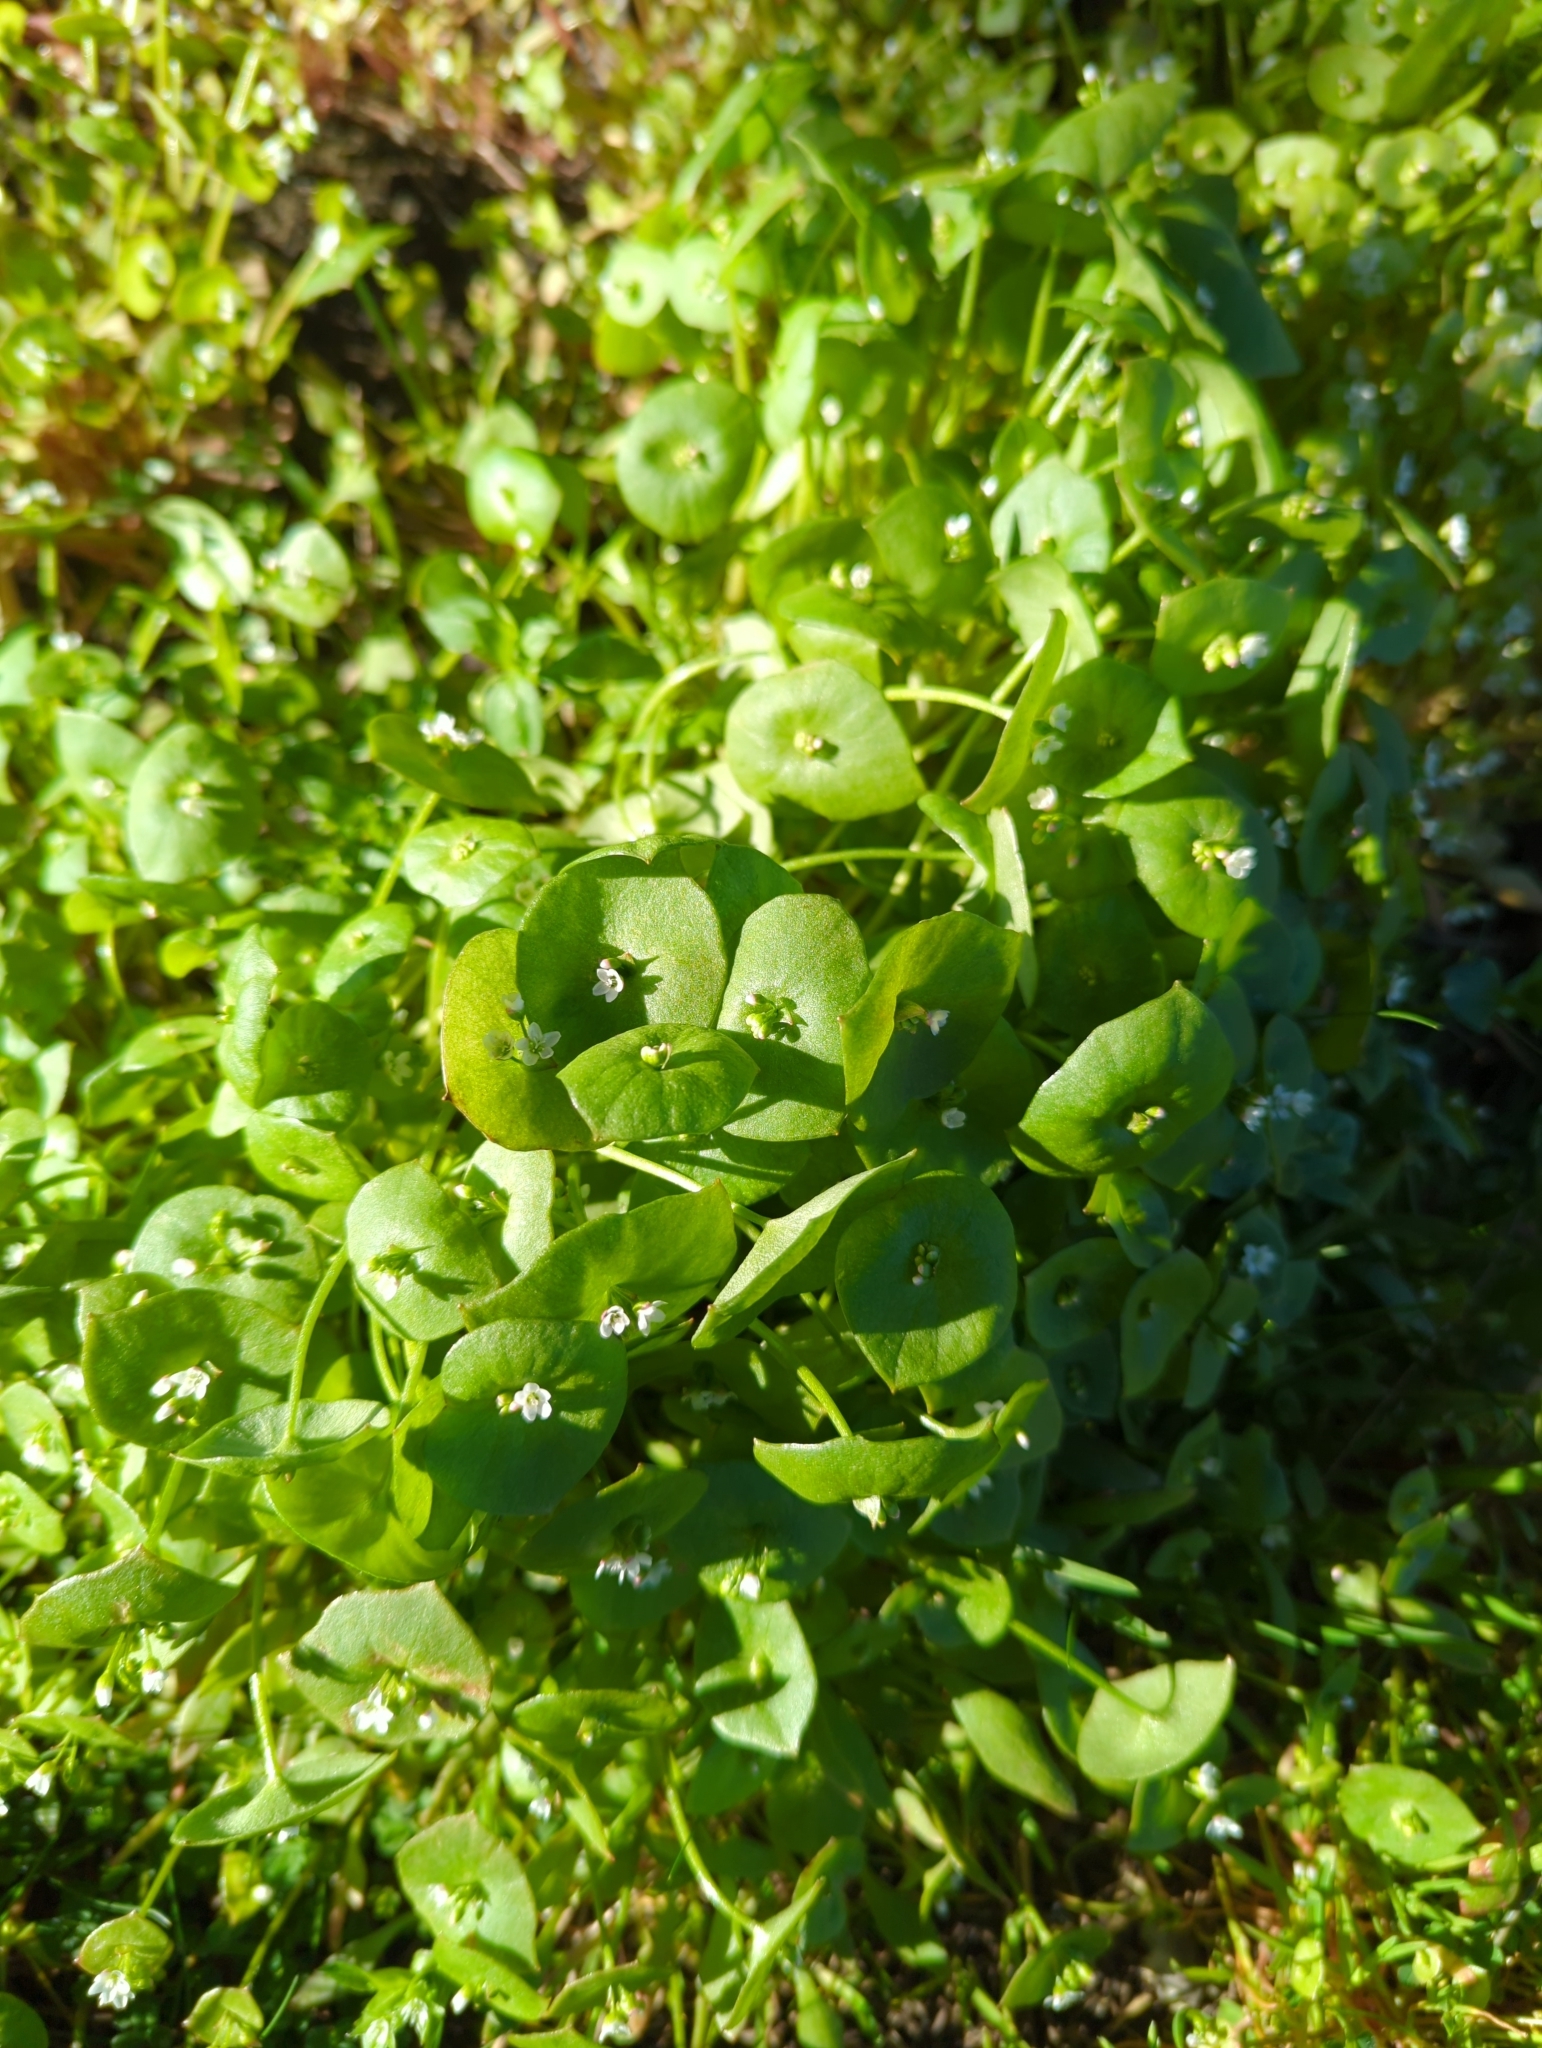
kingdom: Plantae
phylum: Tracheophyta
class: Magnoliopsida
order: Caryophyllales
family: Montiaceae
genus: Claytonia
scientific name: Claytonia perfoliata
